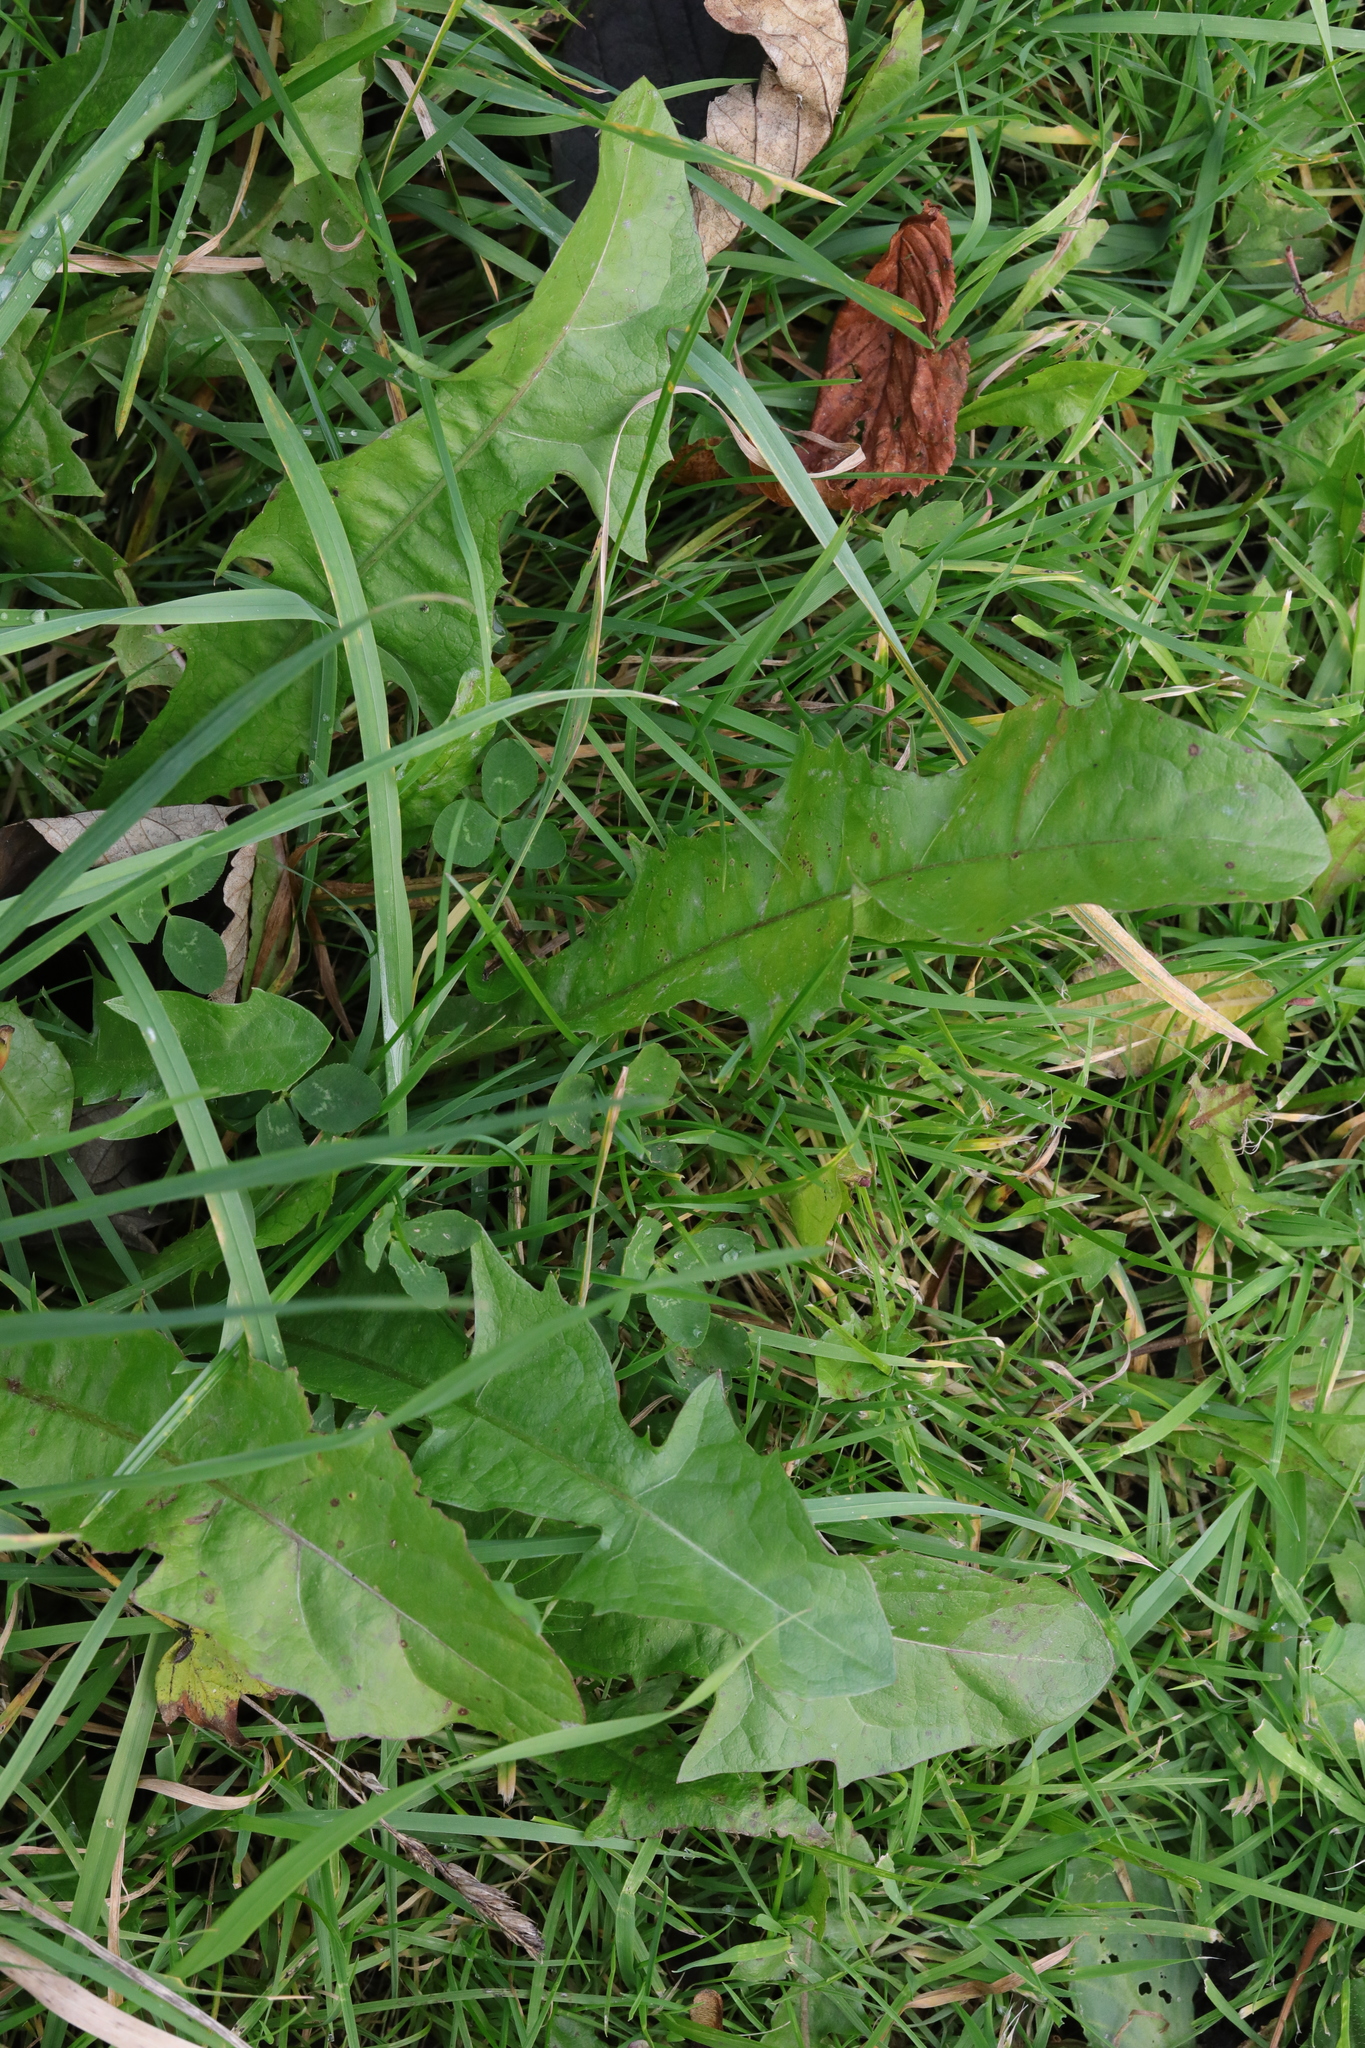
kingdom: Plantae
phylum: Tracheophyta
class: Magnoliopsida
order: Asterales
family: Asteraceae
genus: Taraxacum
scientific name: Taraxacum officinale
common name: Common dandelion
